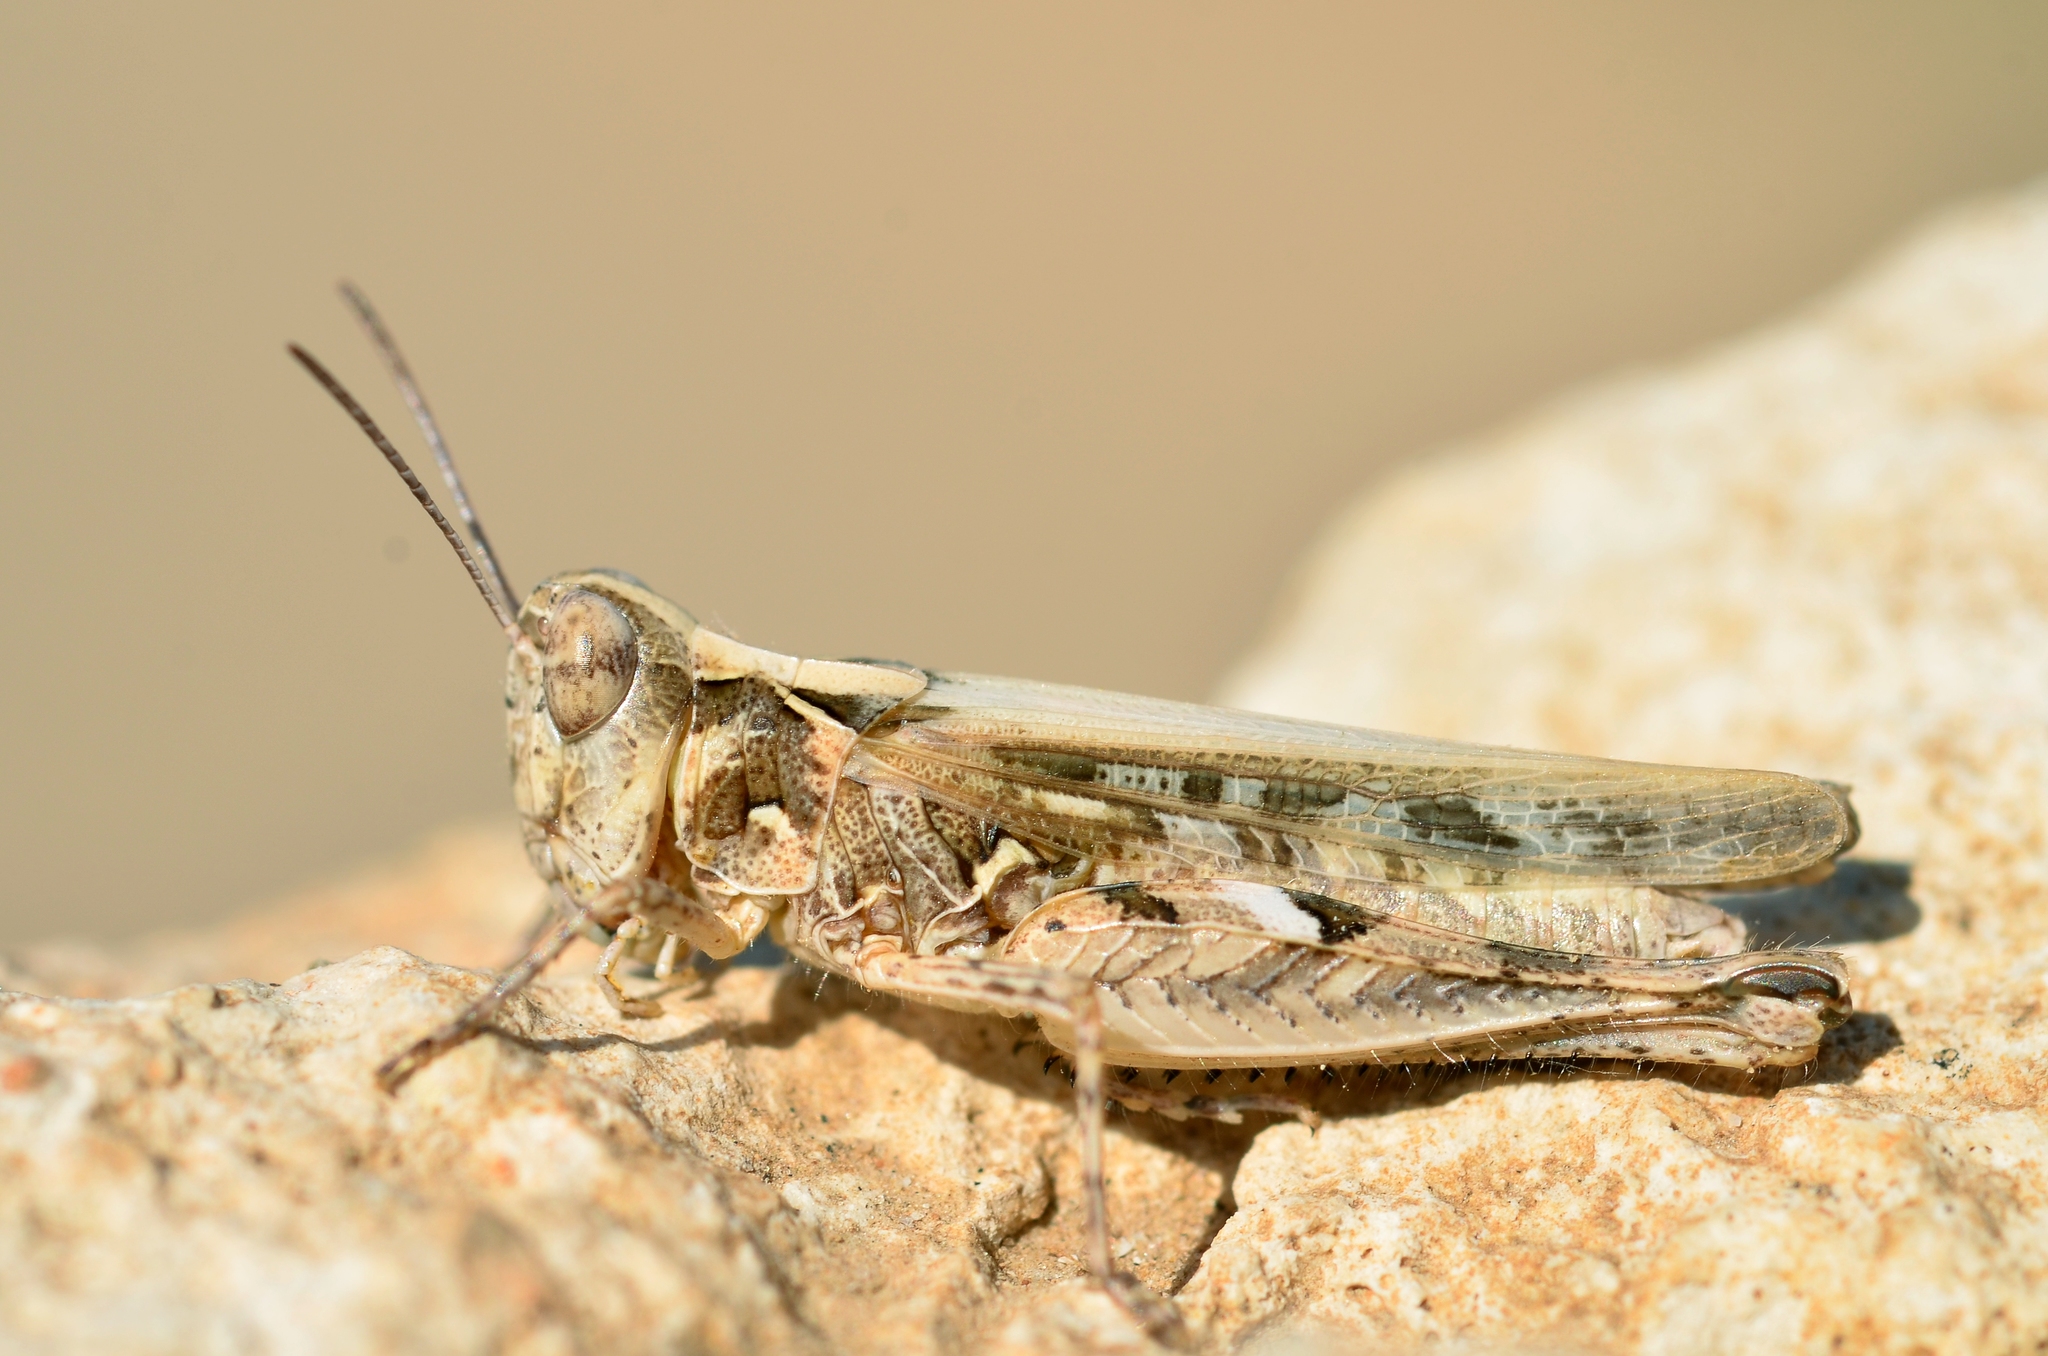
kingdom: Animalia
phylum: Arthropoda
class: Insecta
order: Orthoptera
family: Acrididae
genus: Dociostaurus
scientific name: Dociostaurus jagoi
